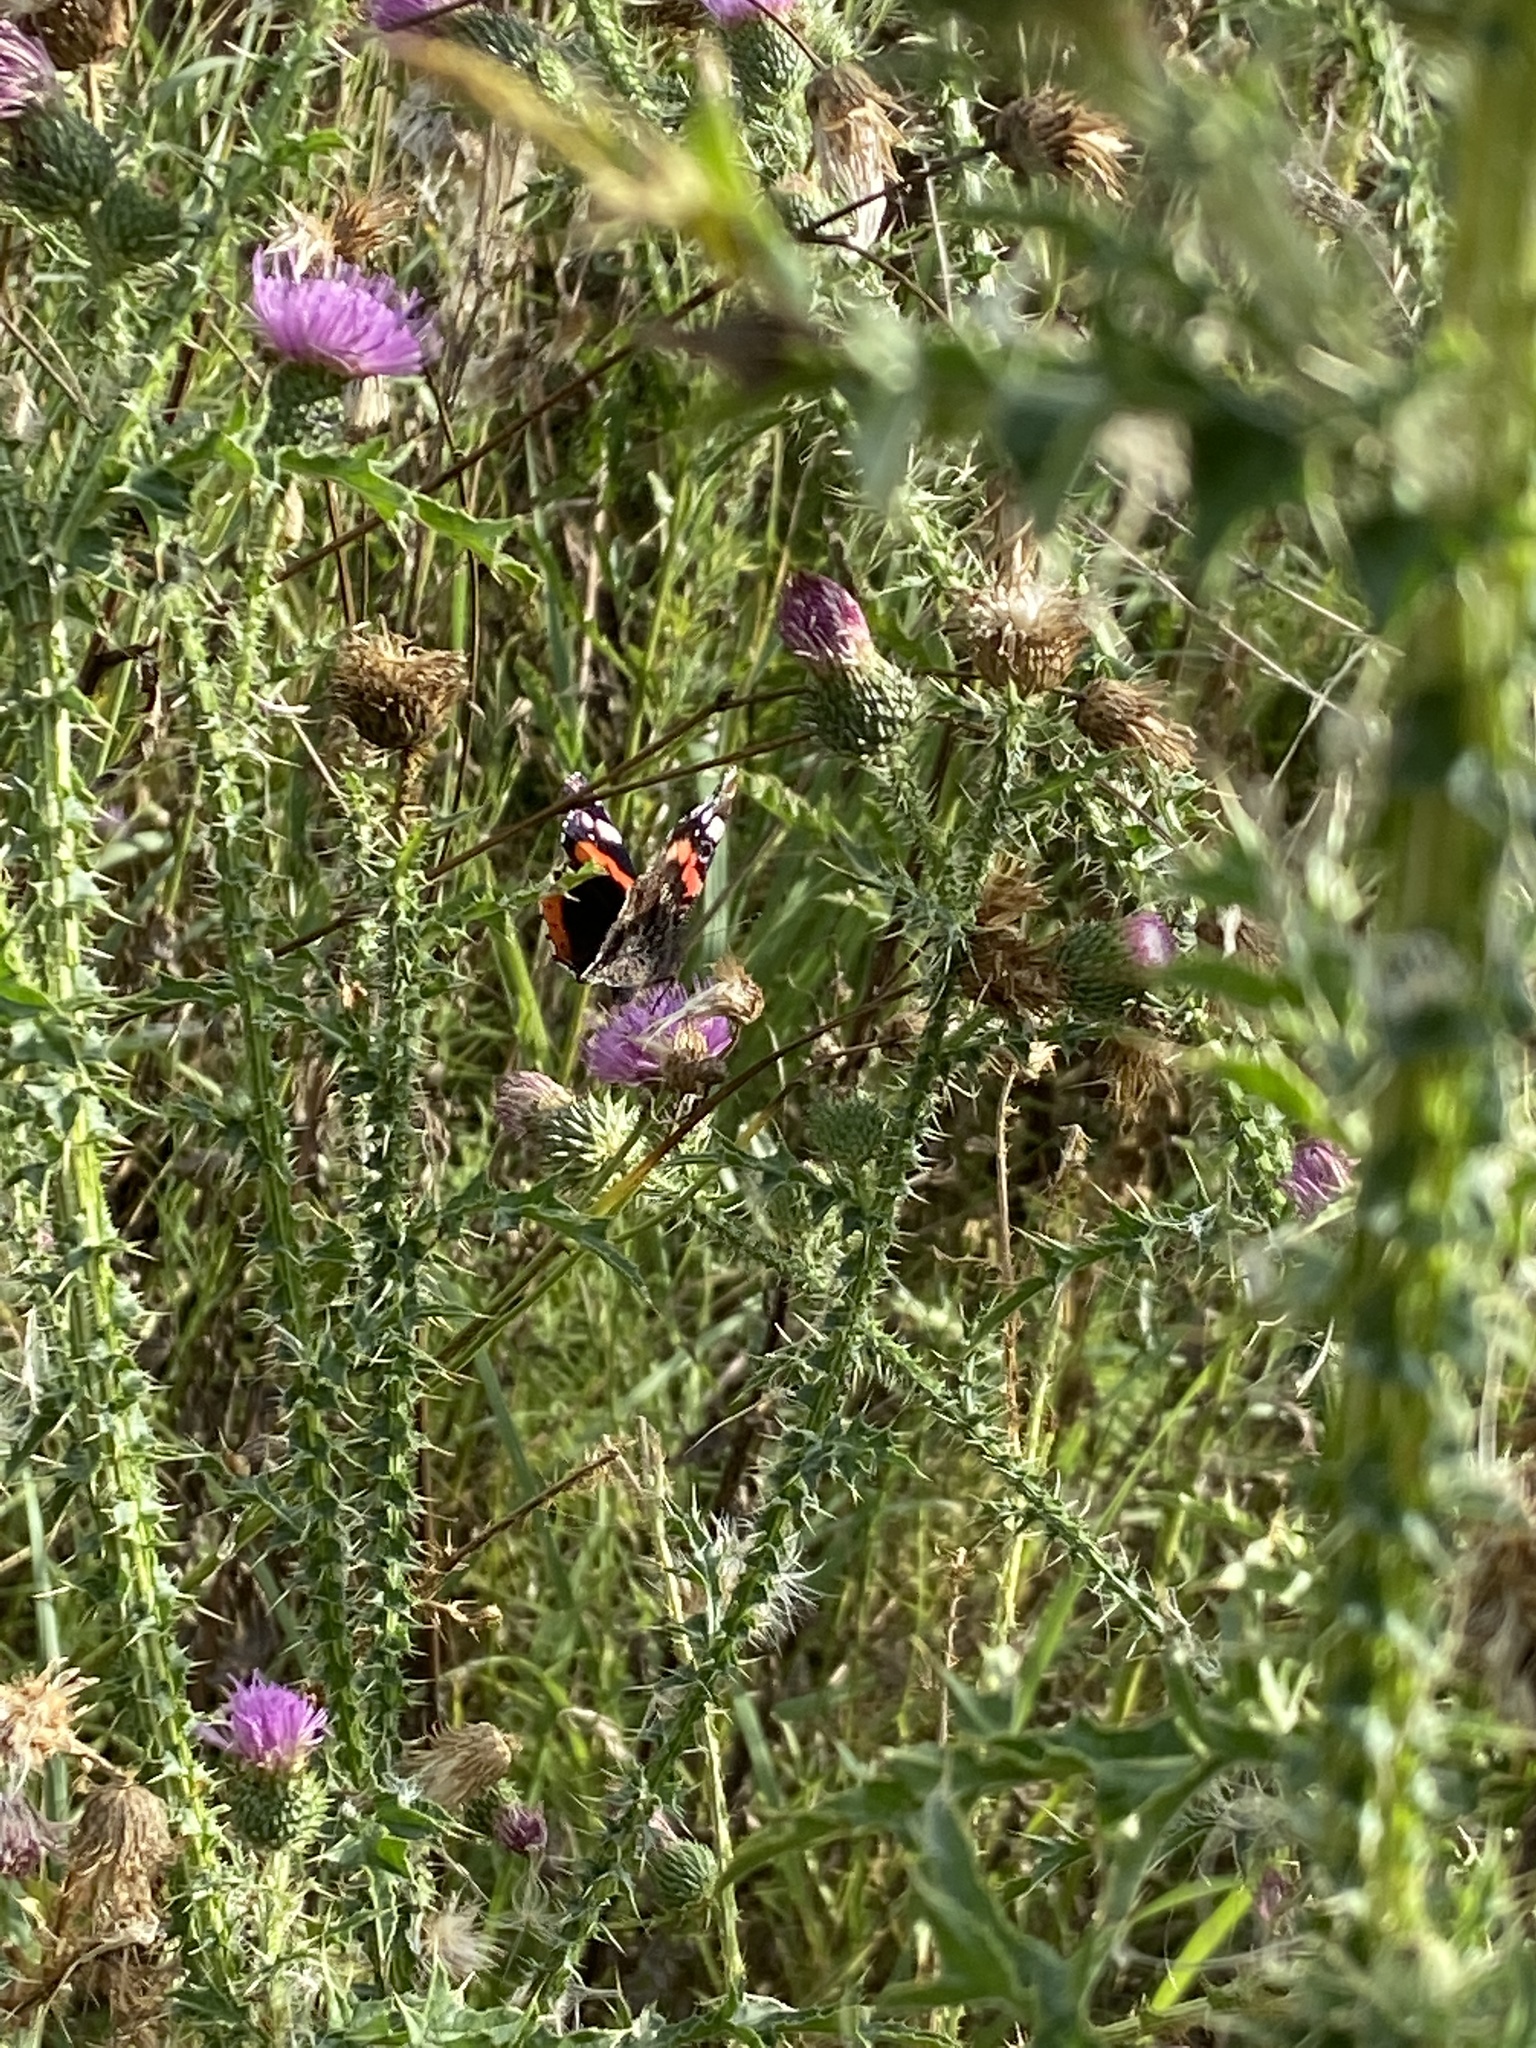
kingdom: Animalia
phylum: Arthropoda
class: Insecta
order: Lepidoptera
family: Nymphalidae
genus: Vanessa
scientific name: Vanessa atalanta
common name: Red admiral
